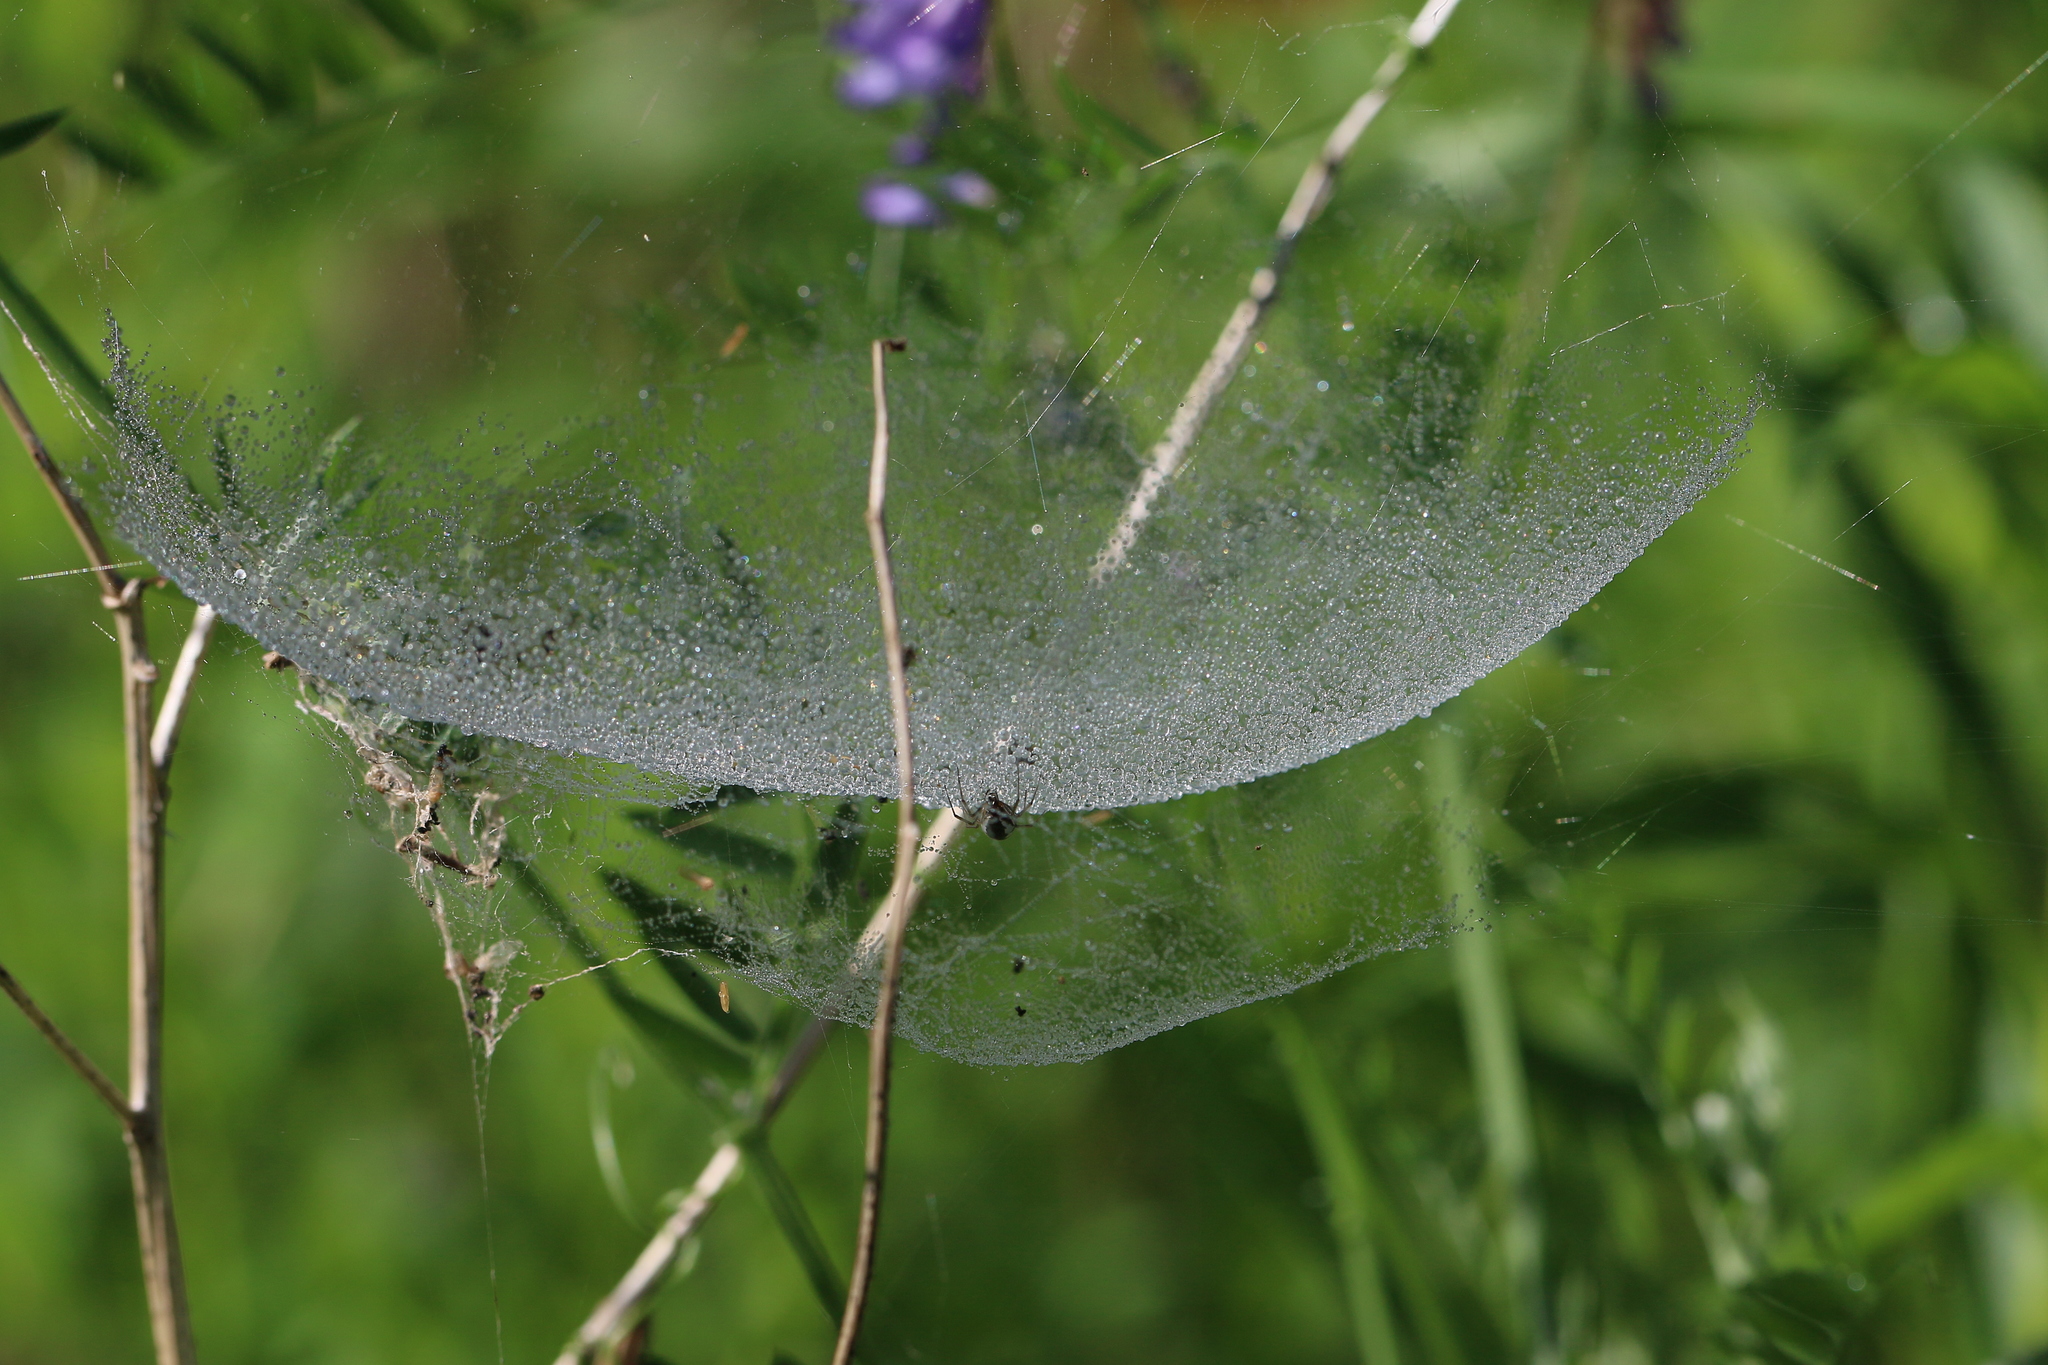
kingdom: Animalia
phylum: Arthropoda
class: Arachnida
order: Araneae
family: Linyphiidae
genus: Frontinella
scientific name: Frontinella pyramitela
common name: Bowl-and-doily spider
